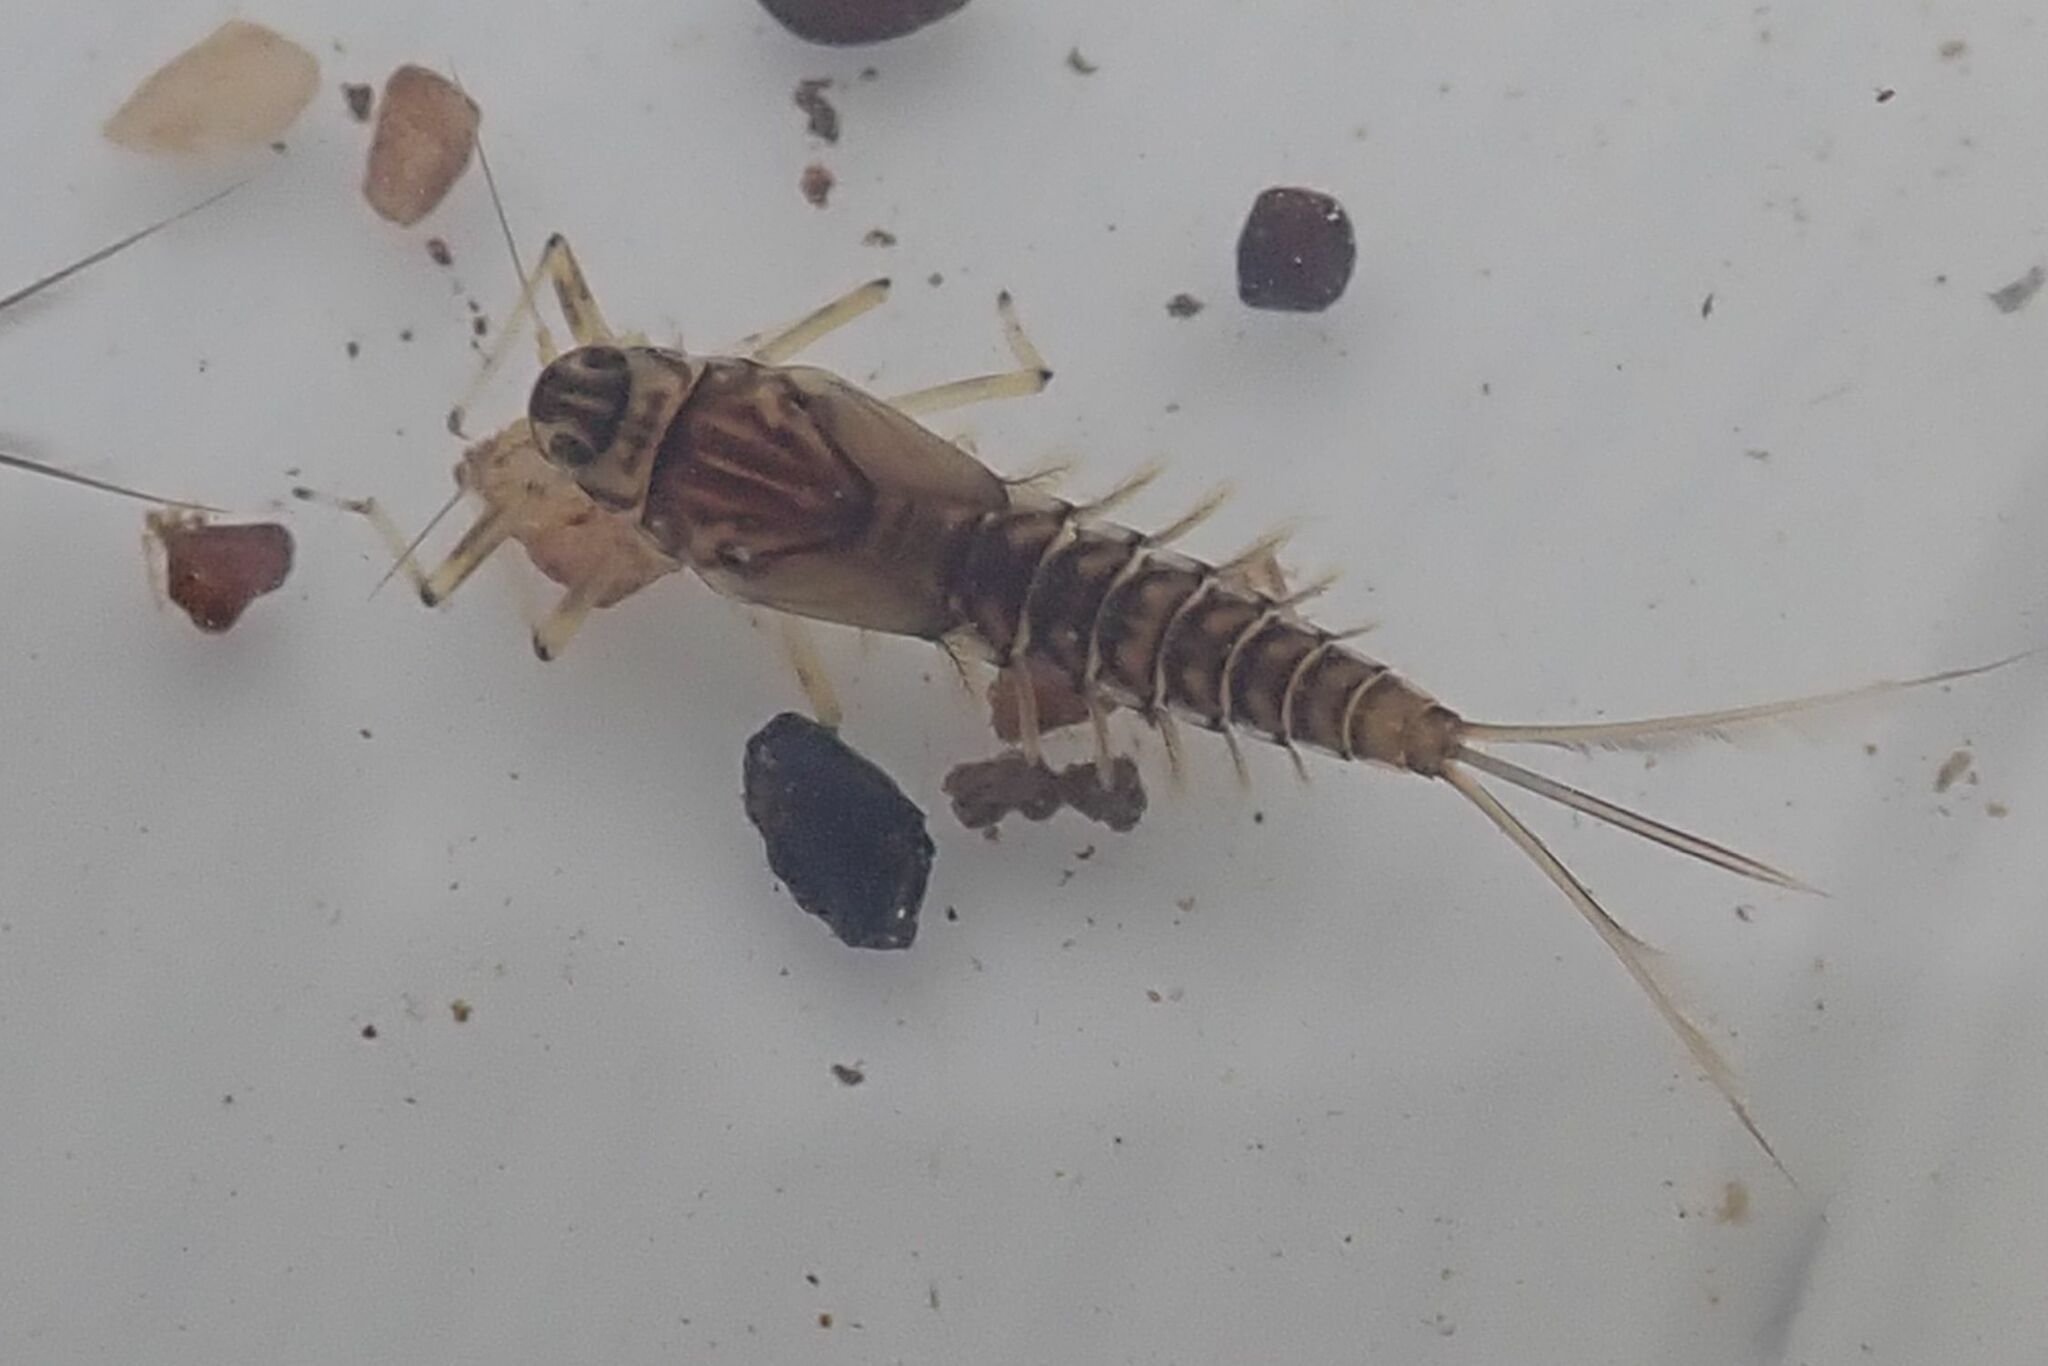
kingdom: Animalia
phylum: Arthropoda
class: Insecta
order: Ephemeroptera
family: Baetidae
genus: Baetis
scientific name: Baetis harrisoni
